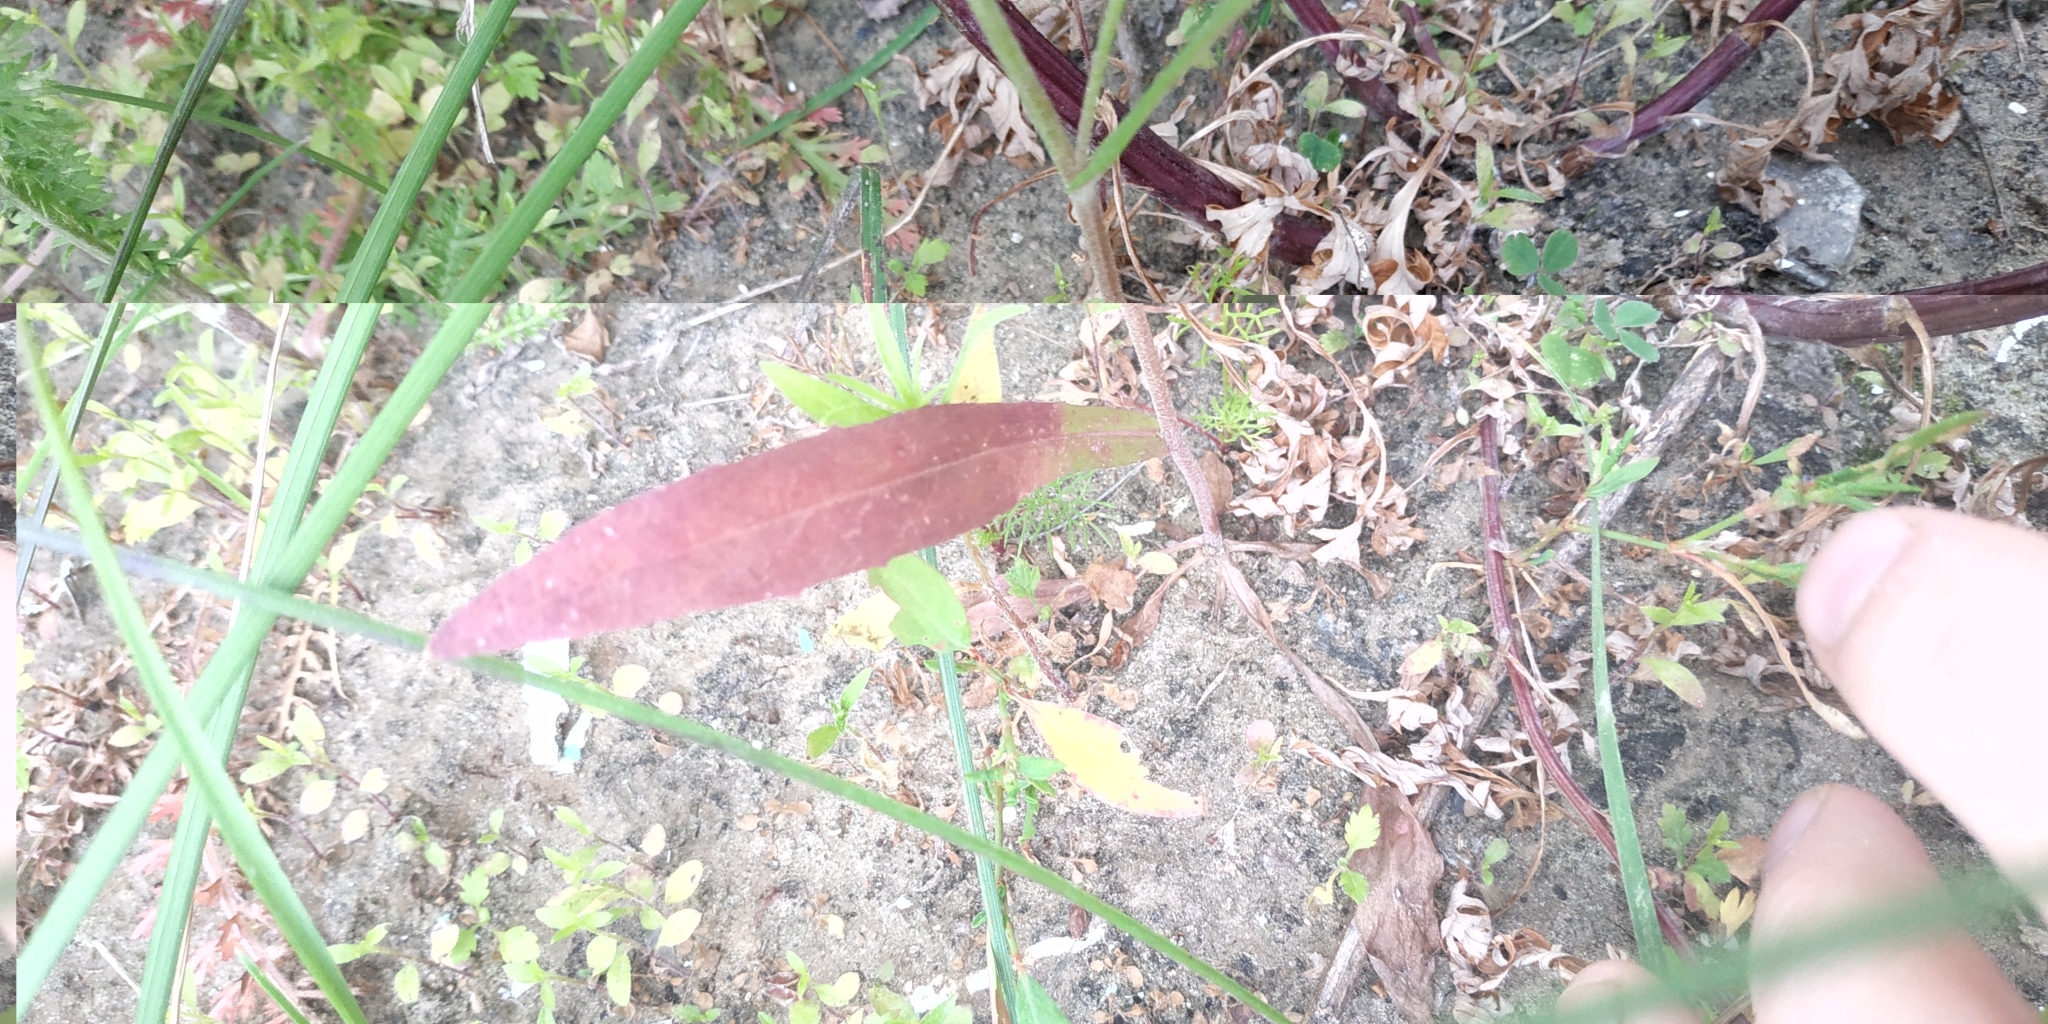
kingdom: Plantae
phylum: Tracheophyta
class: Magnoliopsida
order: Asterales
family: Asteraceae
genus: Crepis
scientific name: Crepis tectorum
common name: Narrow-leaved hawk's-beard
